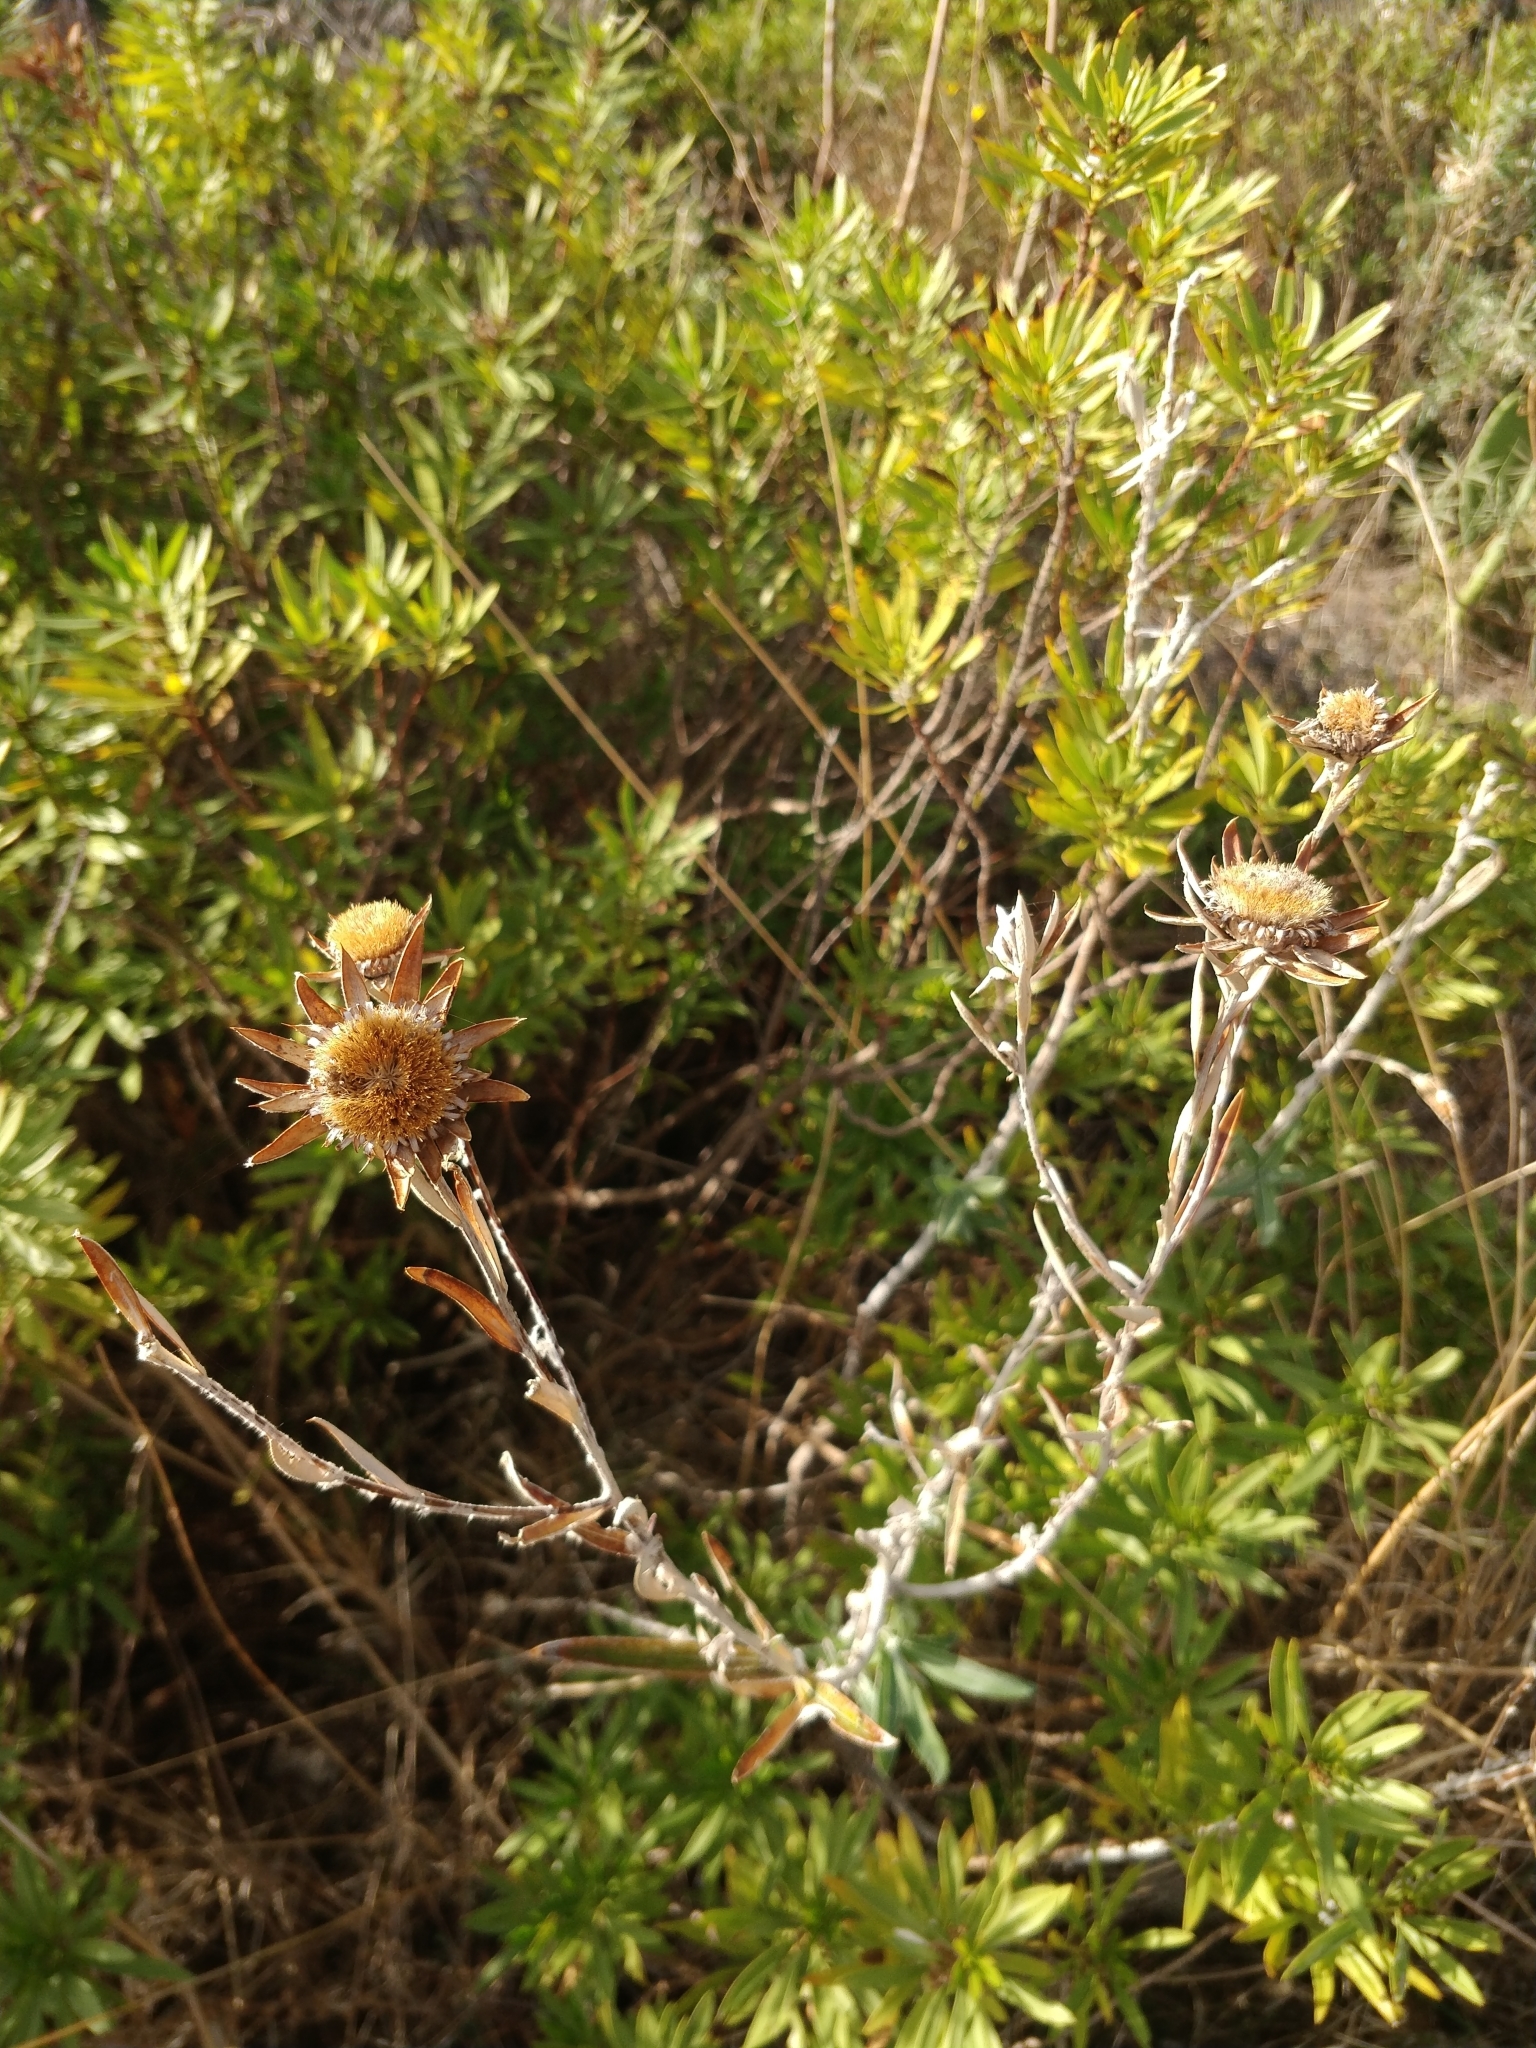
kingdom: Plantae
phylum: Tracheophyta
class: Magnoliopsida
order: Asterales
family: Asteraceae
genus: Carlina
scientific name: Carlina salicifolia
